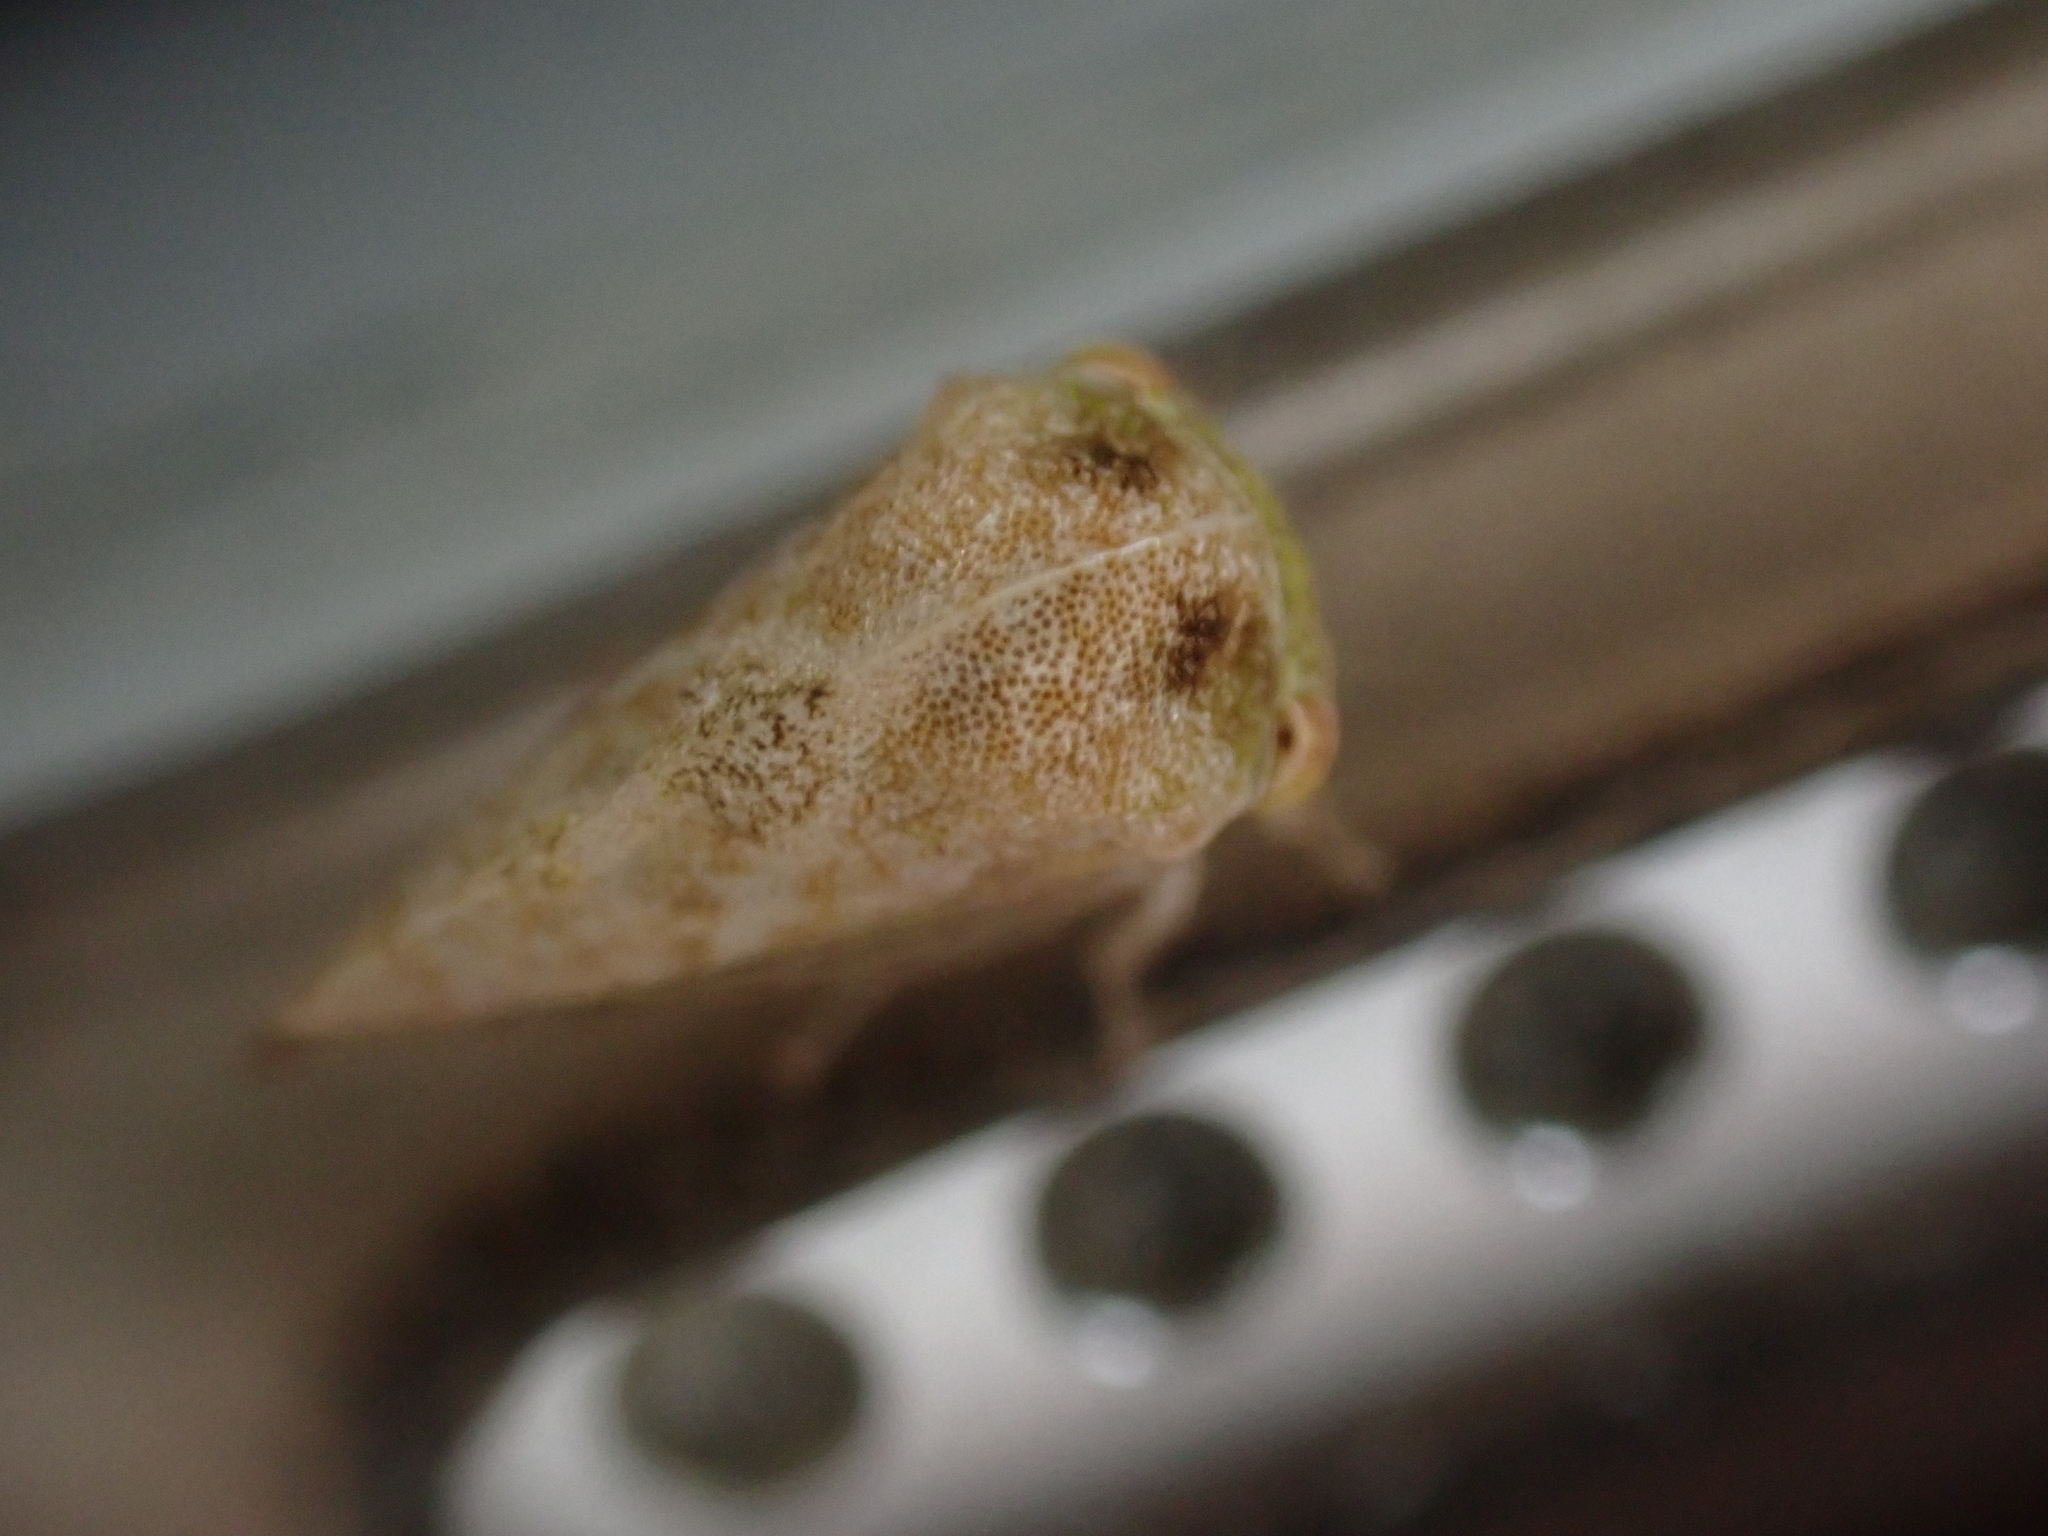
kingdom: Animalia
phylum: Arthropoda
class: Insecta
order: Hemiptera
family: Membracidae
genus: Cyrtolobus
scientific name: Cyrtolobus maculifrontis
